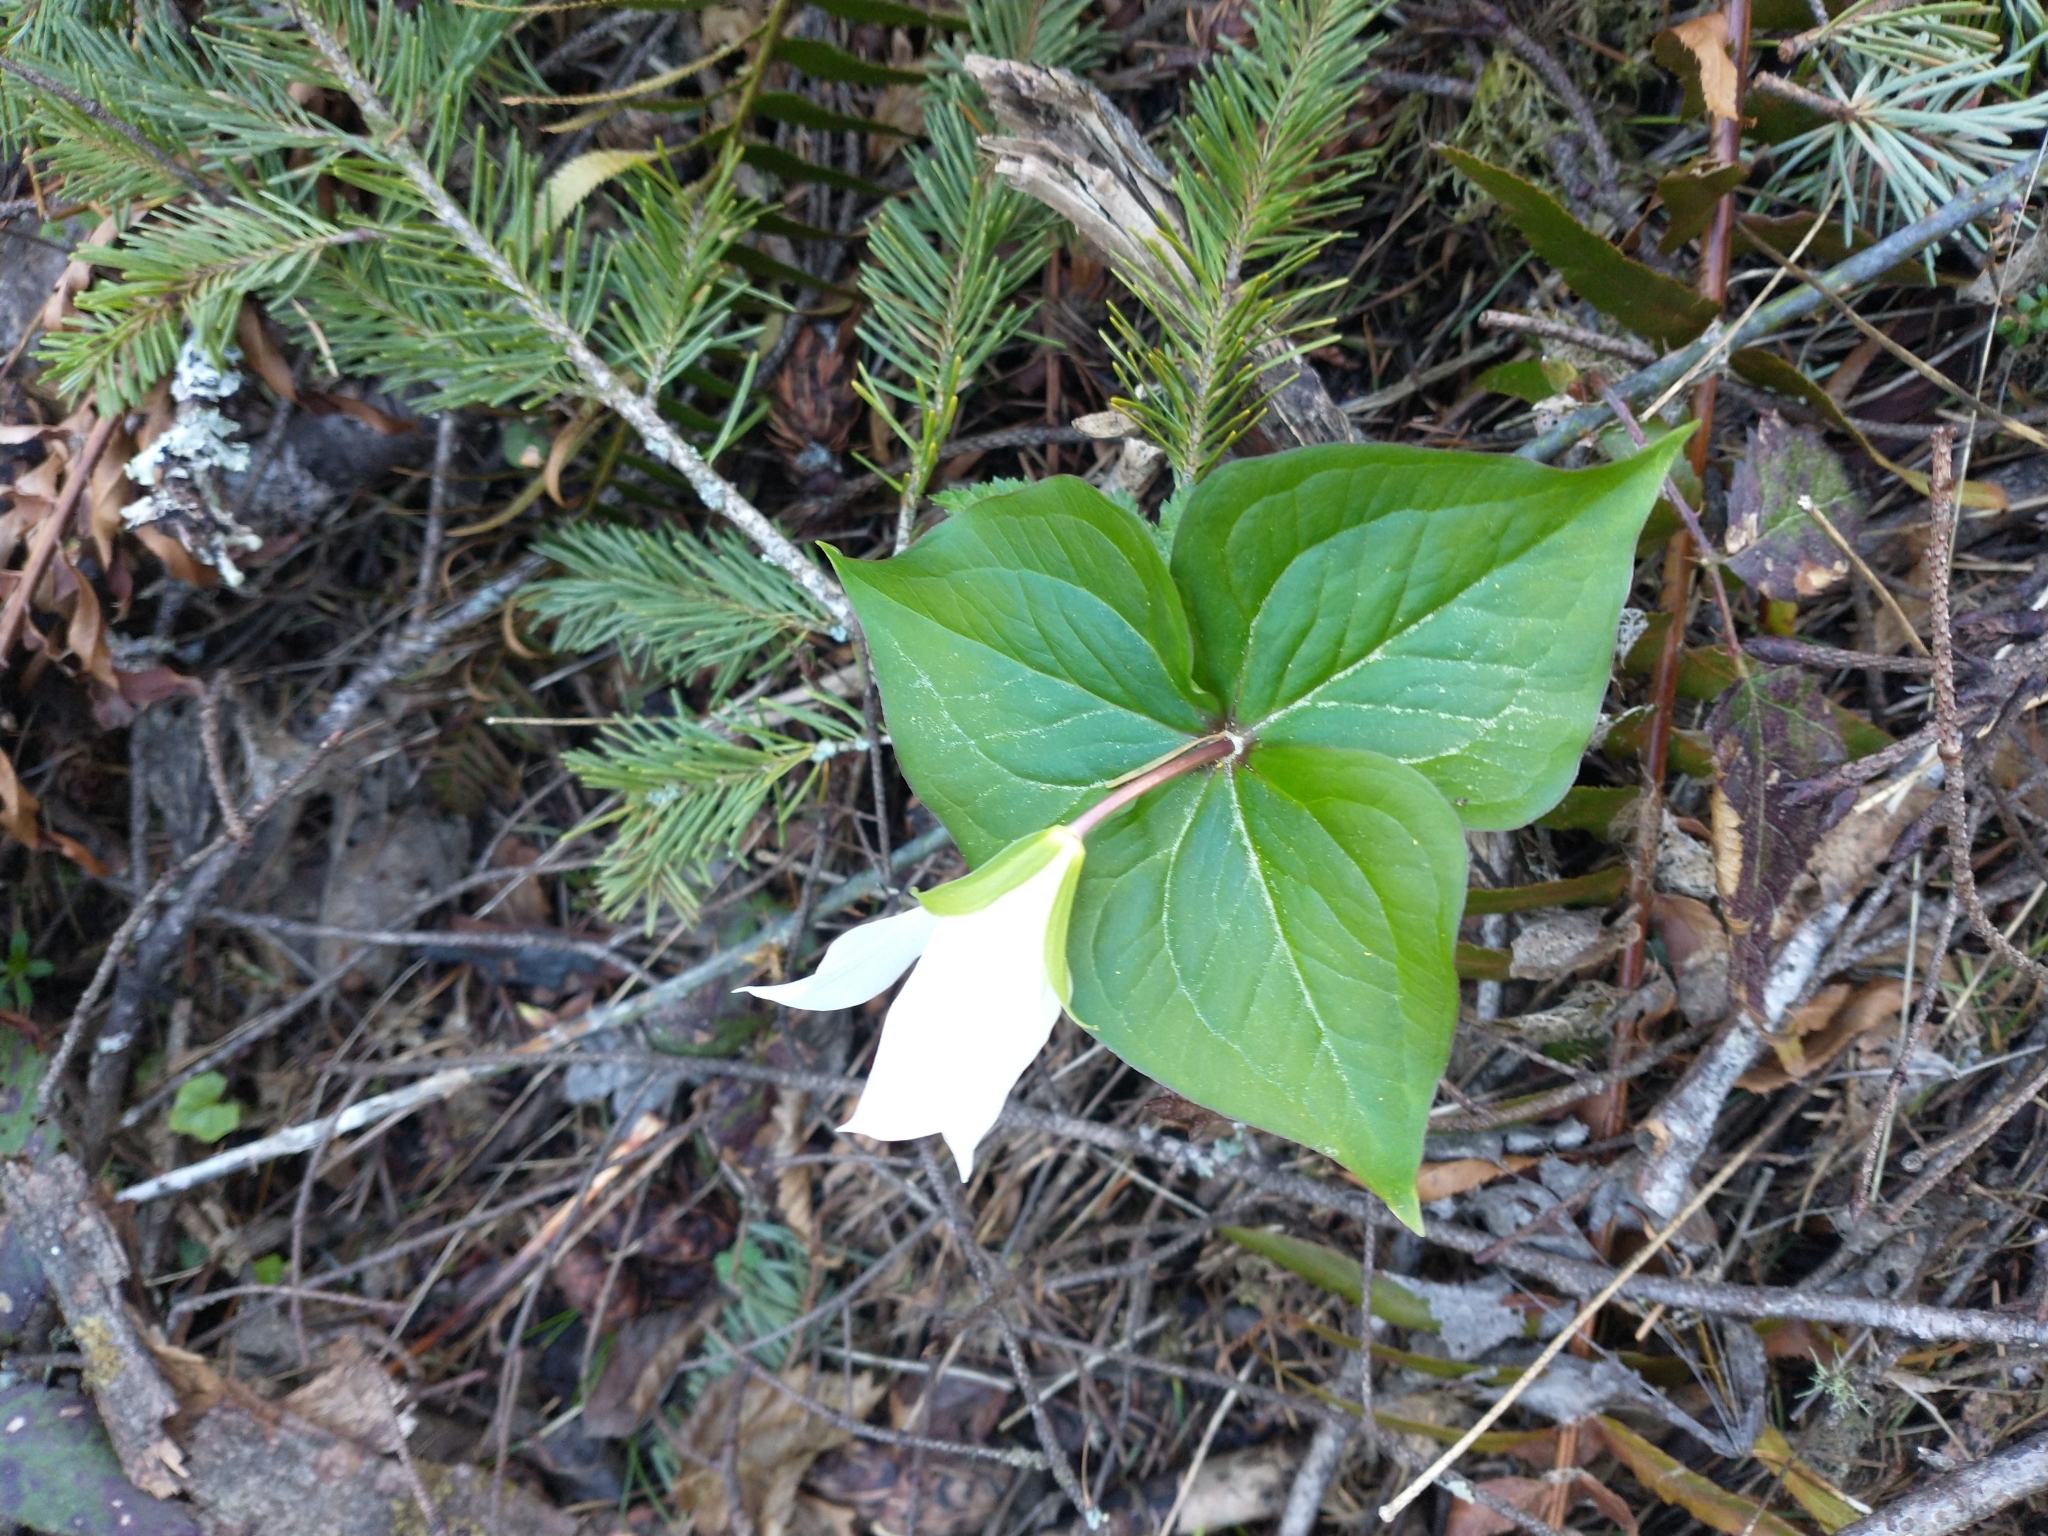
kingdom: Plantae
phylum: Tracheophyta
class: Liliopsida
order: Liliales
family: Melanthiaceae
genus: Trillium
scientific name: Trillium ovatum
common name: Pacific trillium
